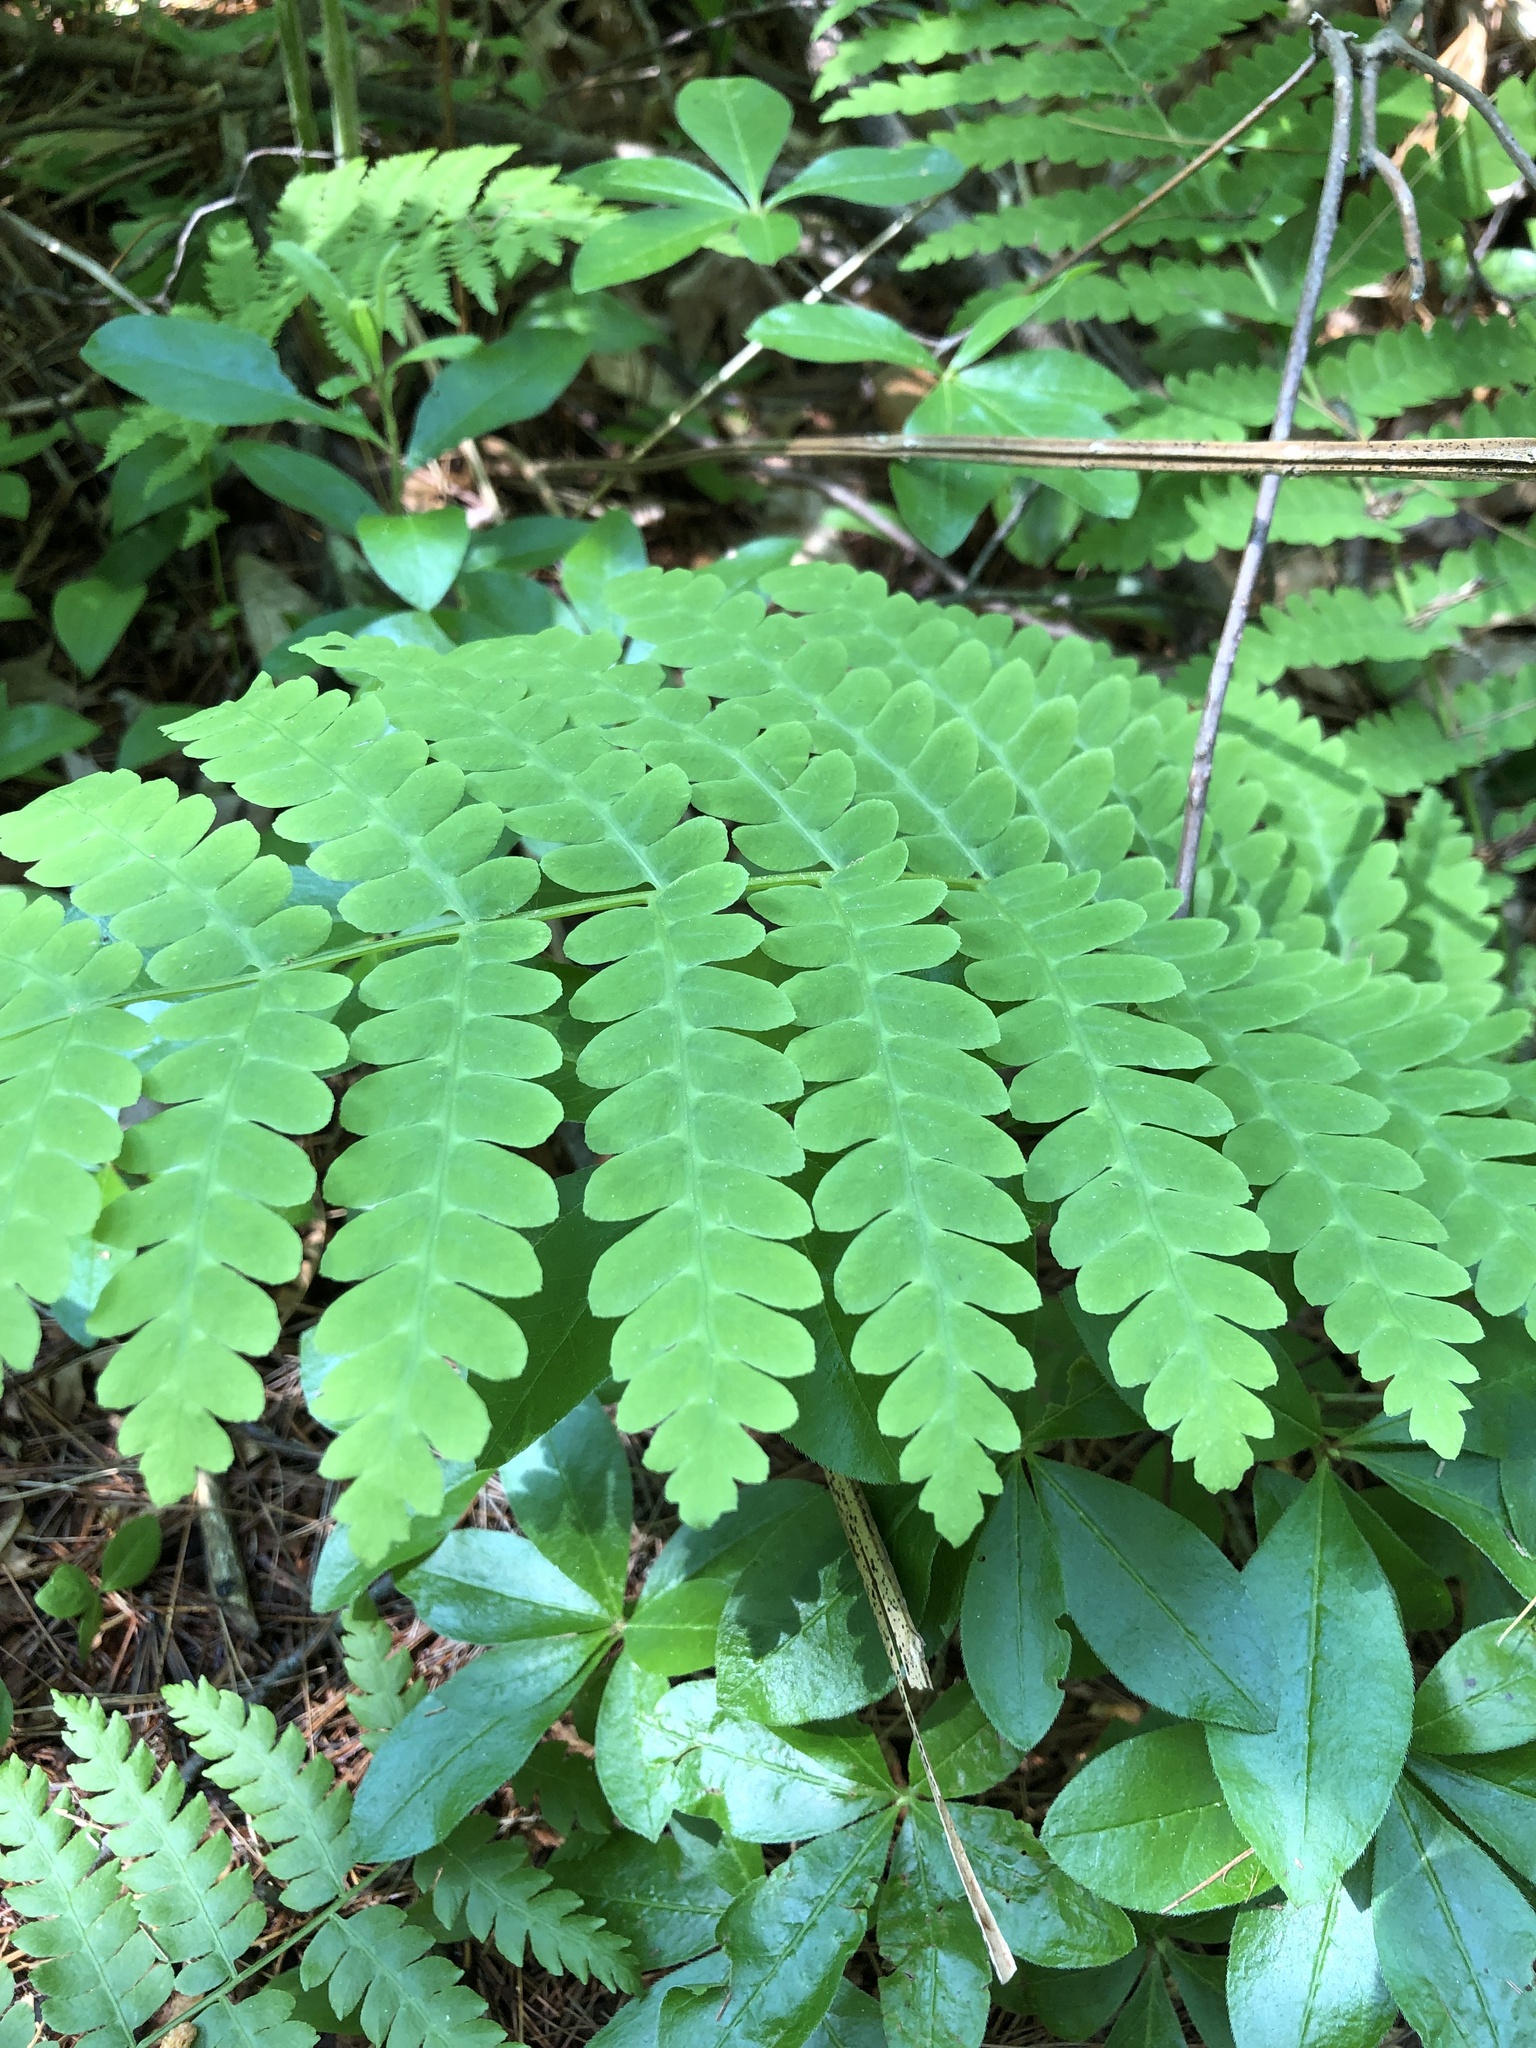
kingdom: Plantae
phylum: Tracheophyta
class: Polypodiopsida
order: Osmundales
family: Osmundaceae
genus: Claytosmunda
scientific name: Claytosmunda claytoniana
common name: Clayton's fern
